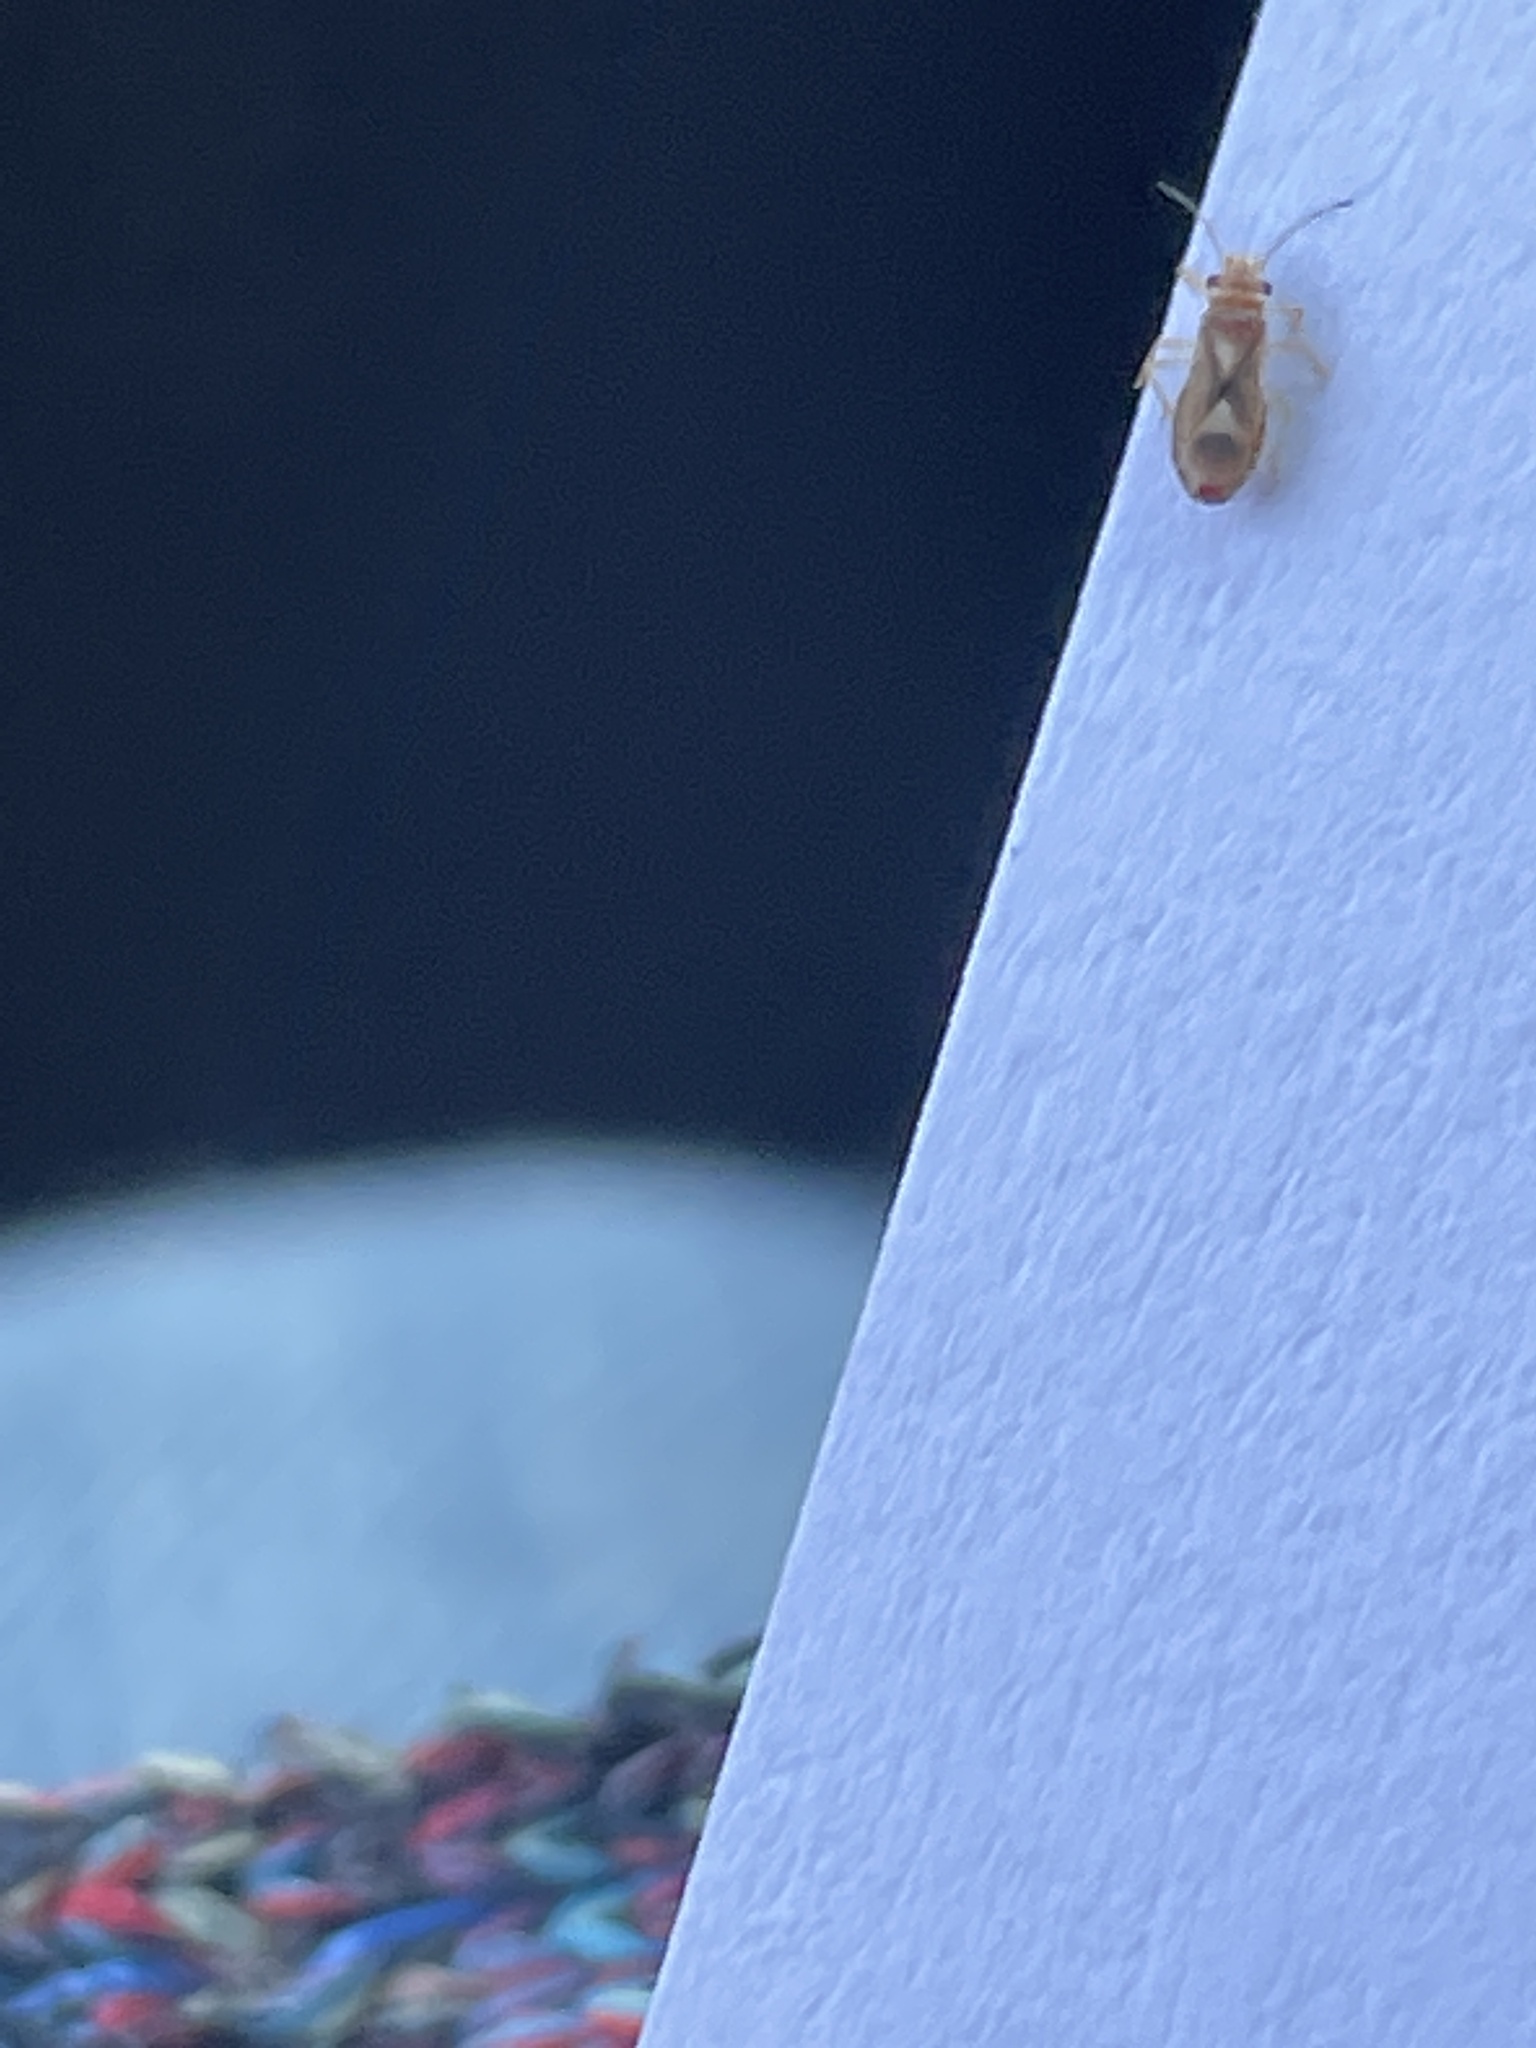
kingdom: Animalia
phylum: Arthropoda
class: Insecta
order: Hemiptera
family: Thaumastocoridae
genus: Thaumastocoris
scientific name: Thaumastocoris peregrinus
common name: Bronze bug
